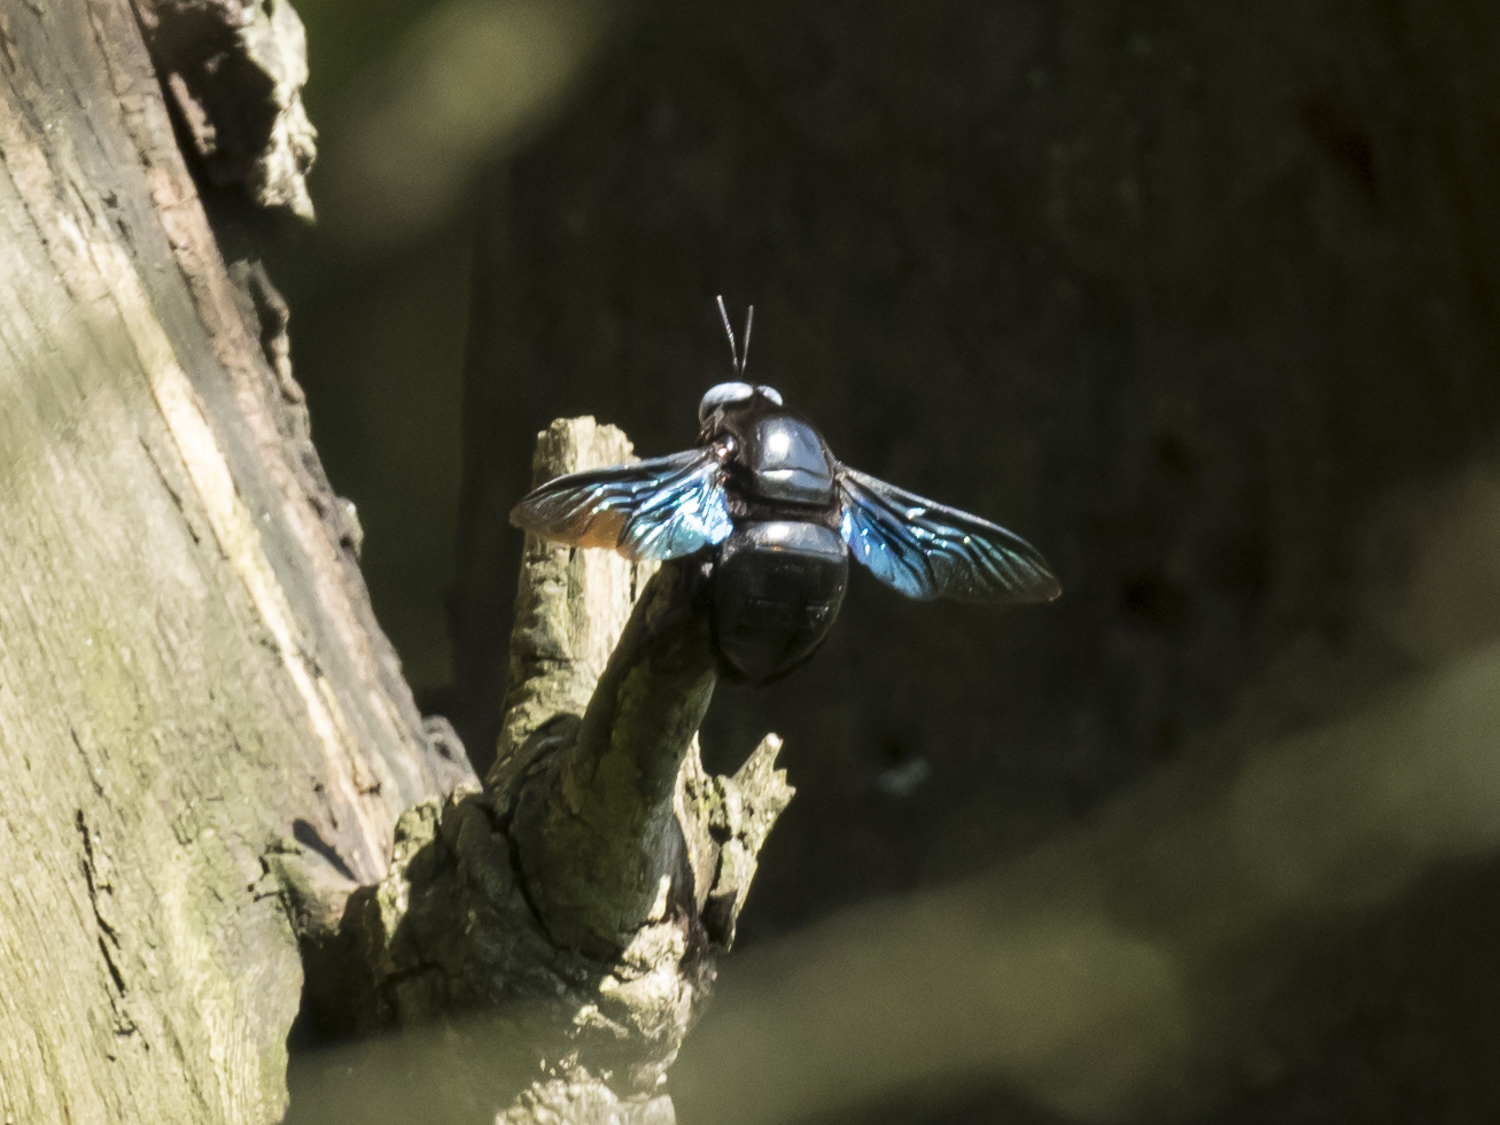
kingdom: Animalia
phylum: Arthropoda
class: Insecta
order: Hymenoptera
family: Apidae
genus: Xylocopa
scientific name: Xylocopa tenuiscapa
